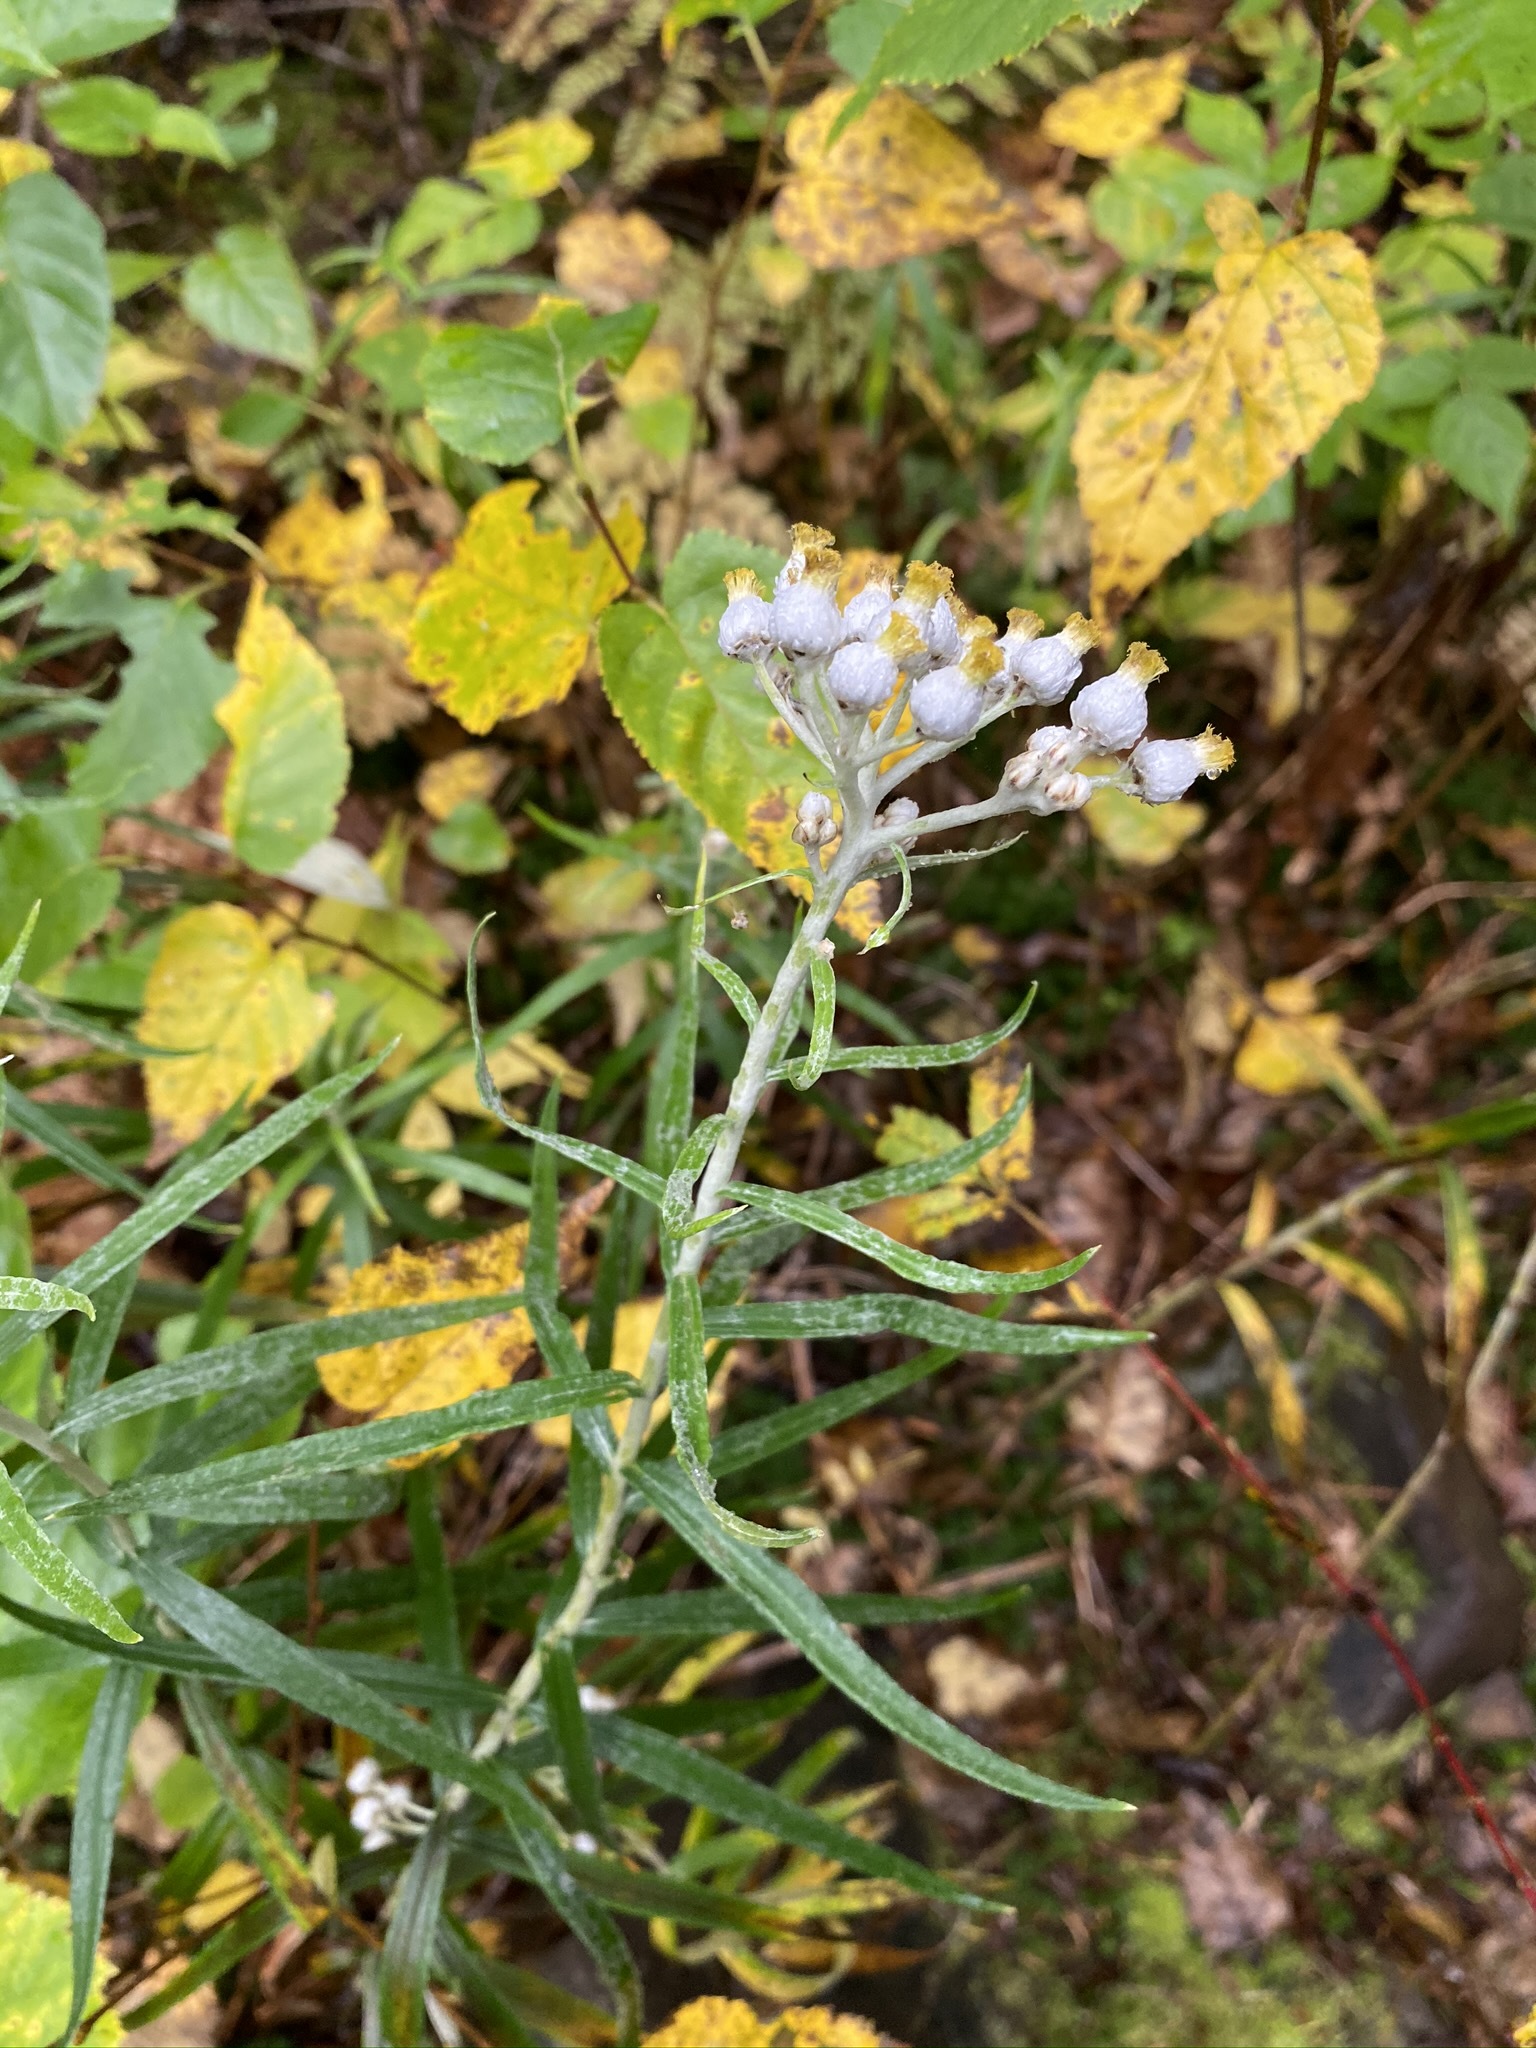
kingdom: Plantae
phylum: Tracheophyta
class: Magnoliopsida
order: Asterales
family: Asteraceae
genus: Anaphalis
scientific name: Anaphalis margaritacea
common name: Pearly everlasting
